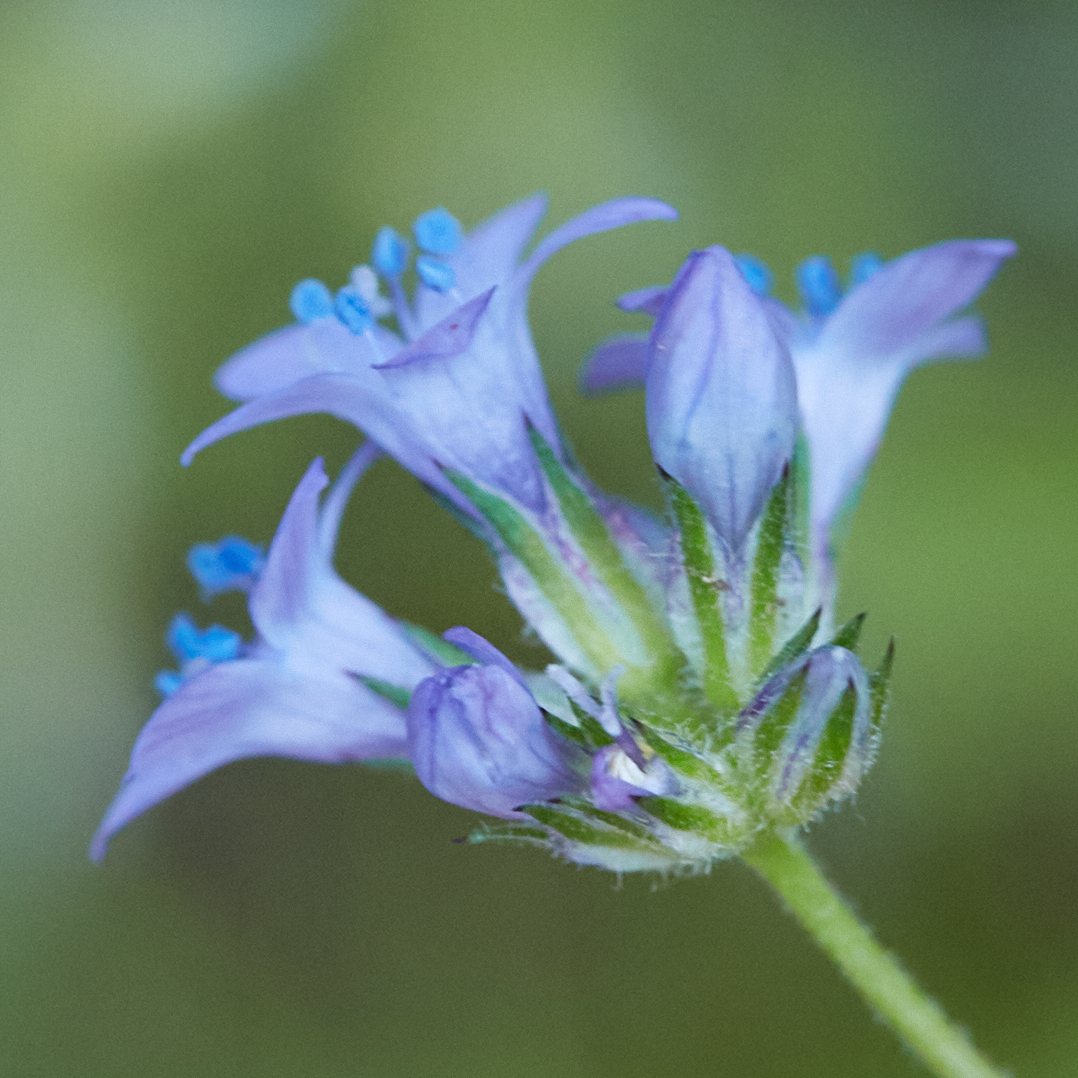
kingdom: Plantae
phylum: Tracheophyta
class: Magnoliopsida
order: Ericales
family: Polemoniaceae
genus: Gilia
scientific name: Gilia achilleifolia
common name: California gily-flower
